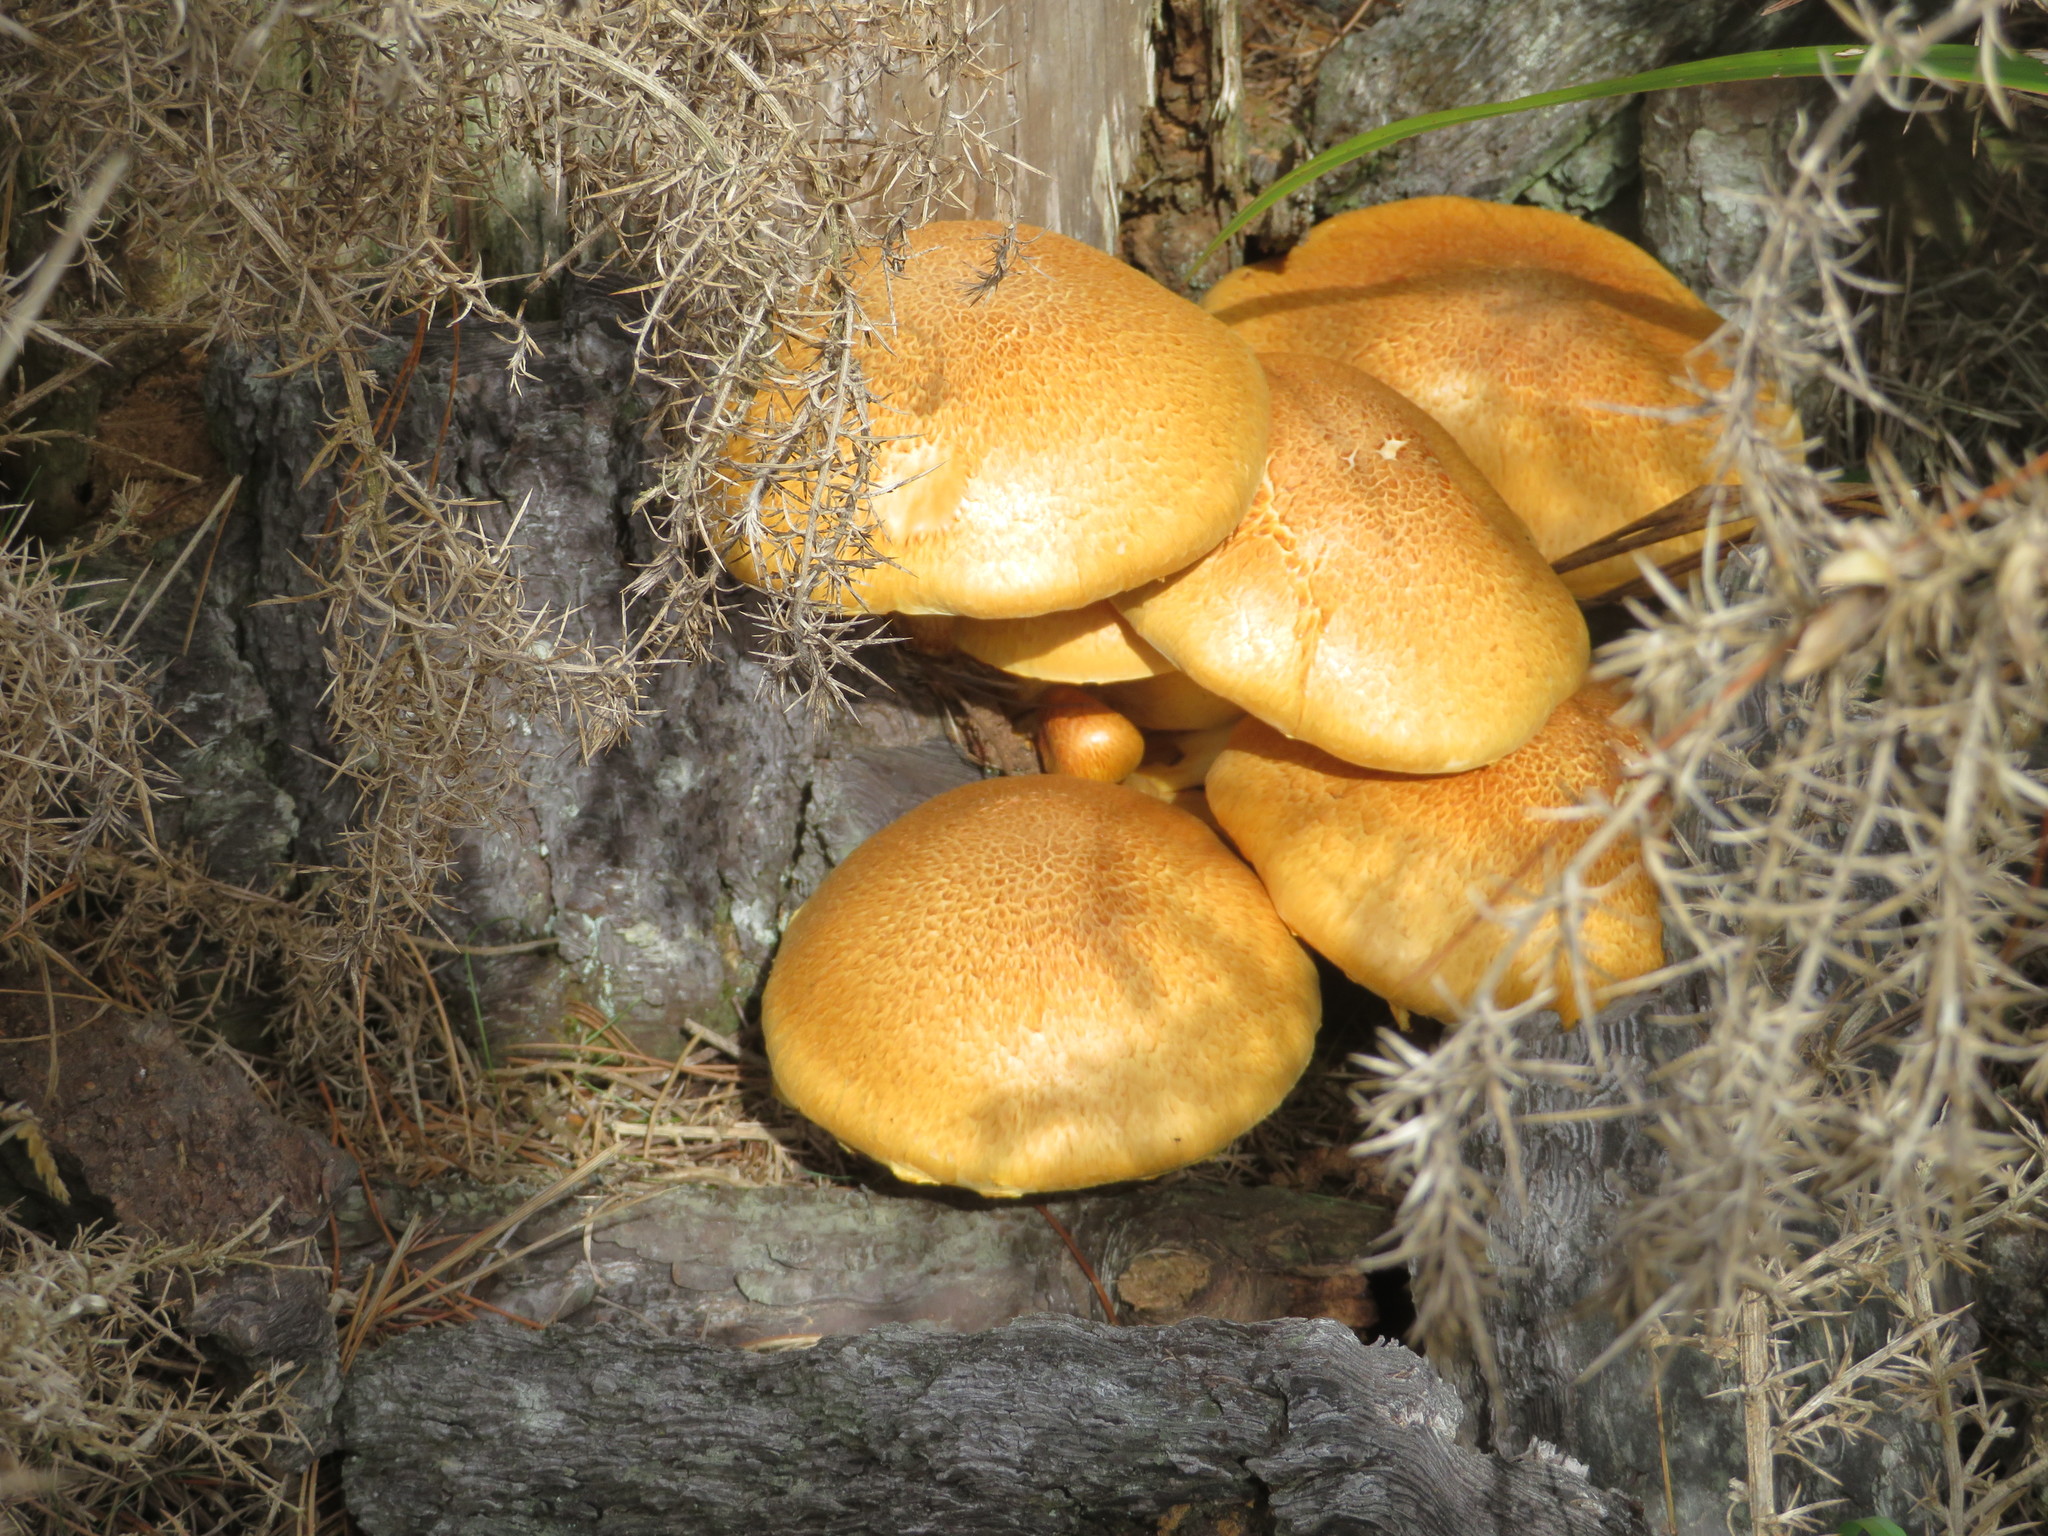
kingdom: Fungi
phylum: Basidiomycota
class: Agaricomycetes
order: Agaricales
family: Hymenogastraceae
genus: Gymnopilus
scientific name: Gymnopilus junonius
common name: Spectacular rustgill
